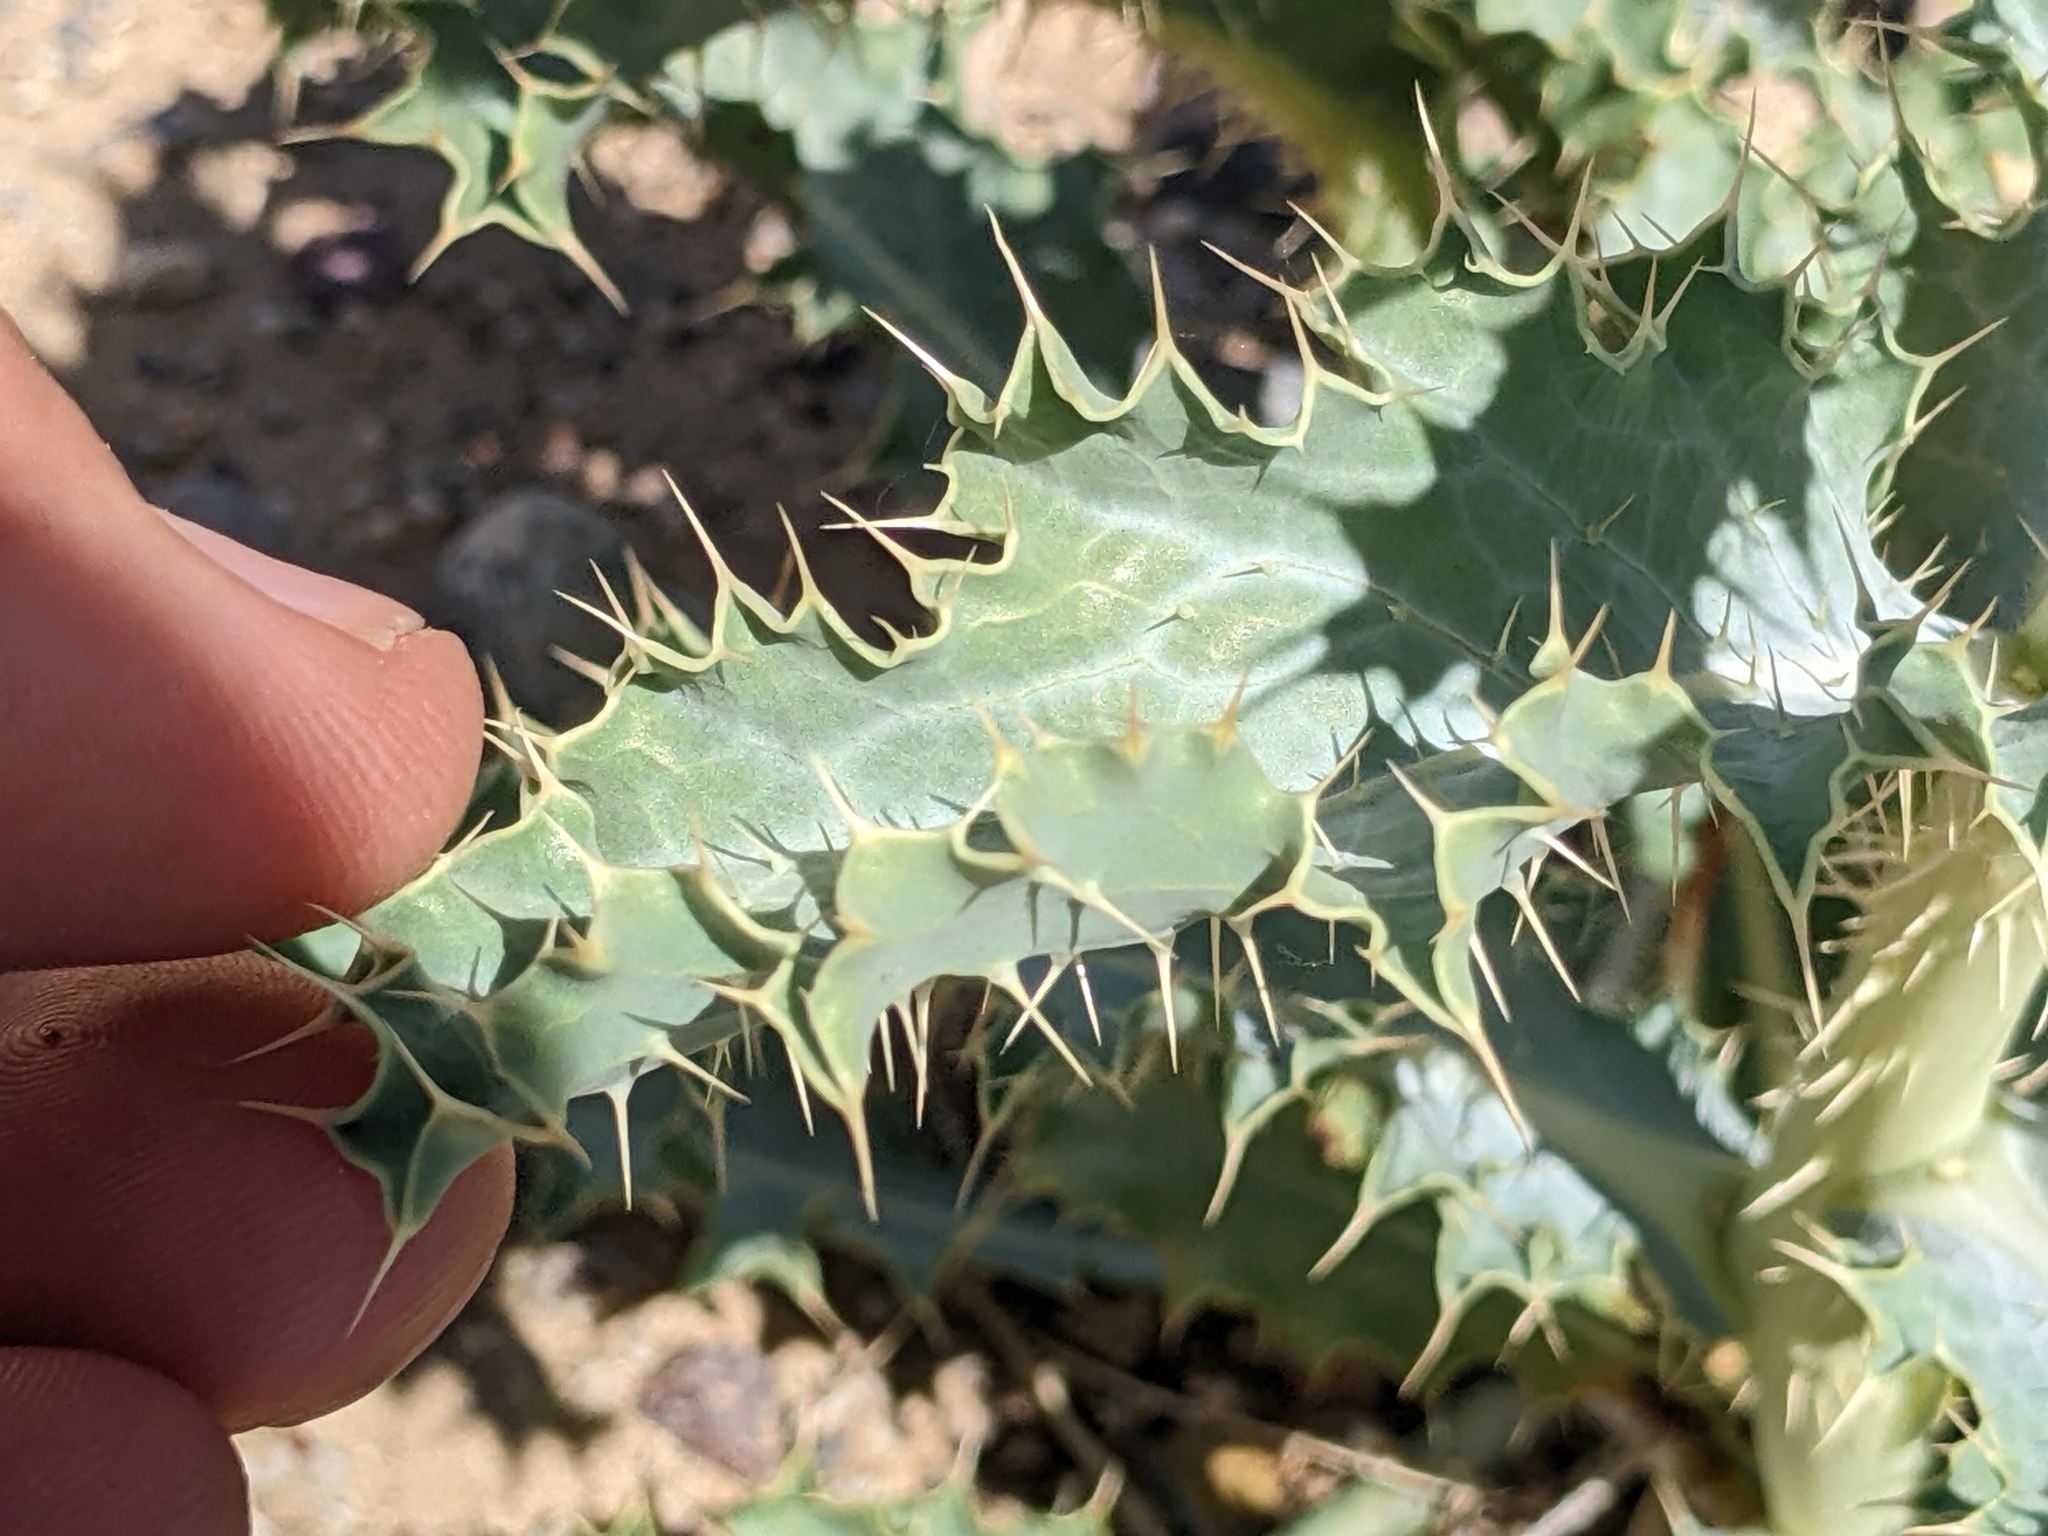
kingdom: Plantae
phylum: Tracheophyta
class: Magnoliopsida
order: Ranunculales
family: Papaveraceae
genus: Argemone
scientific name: Argemone corymbosa
